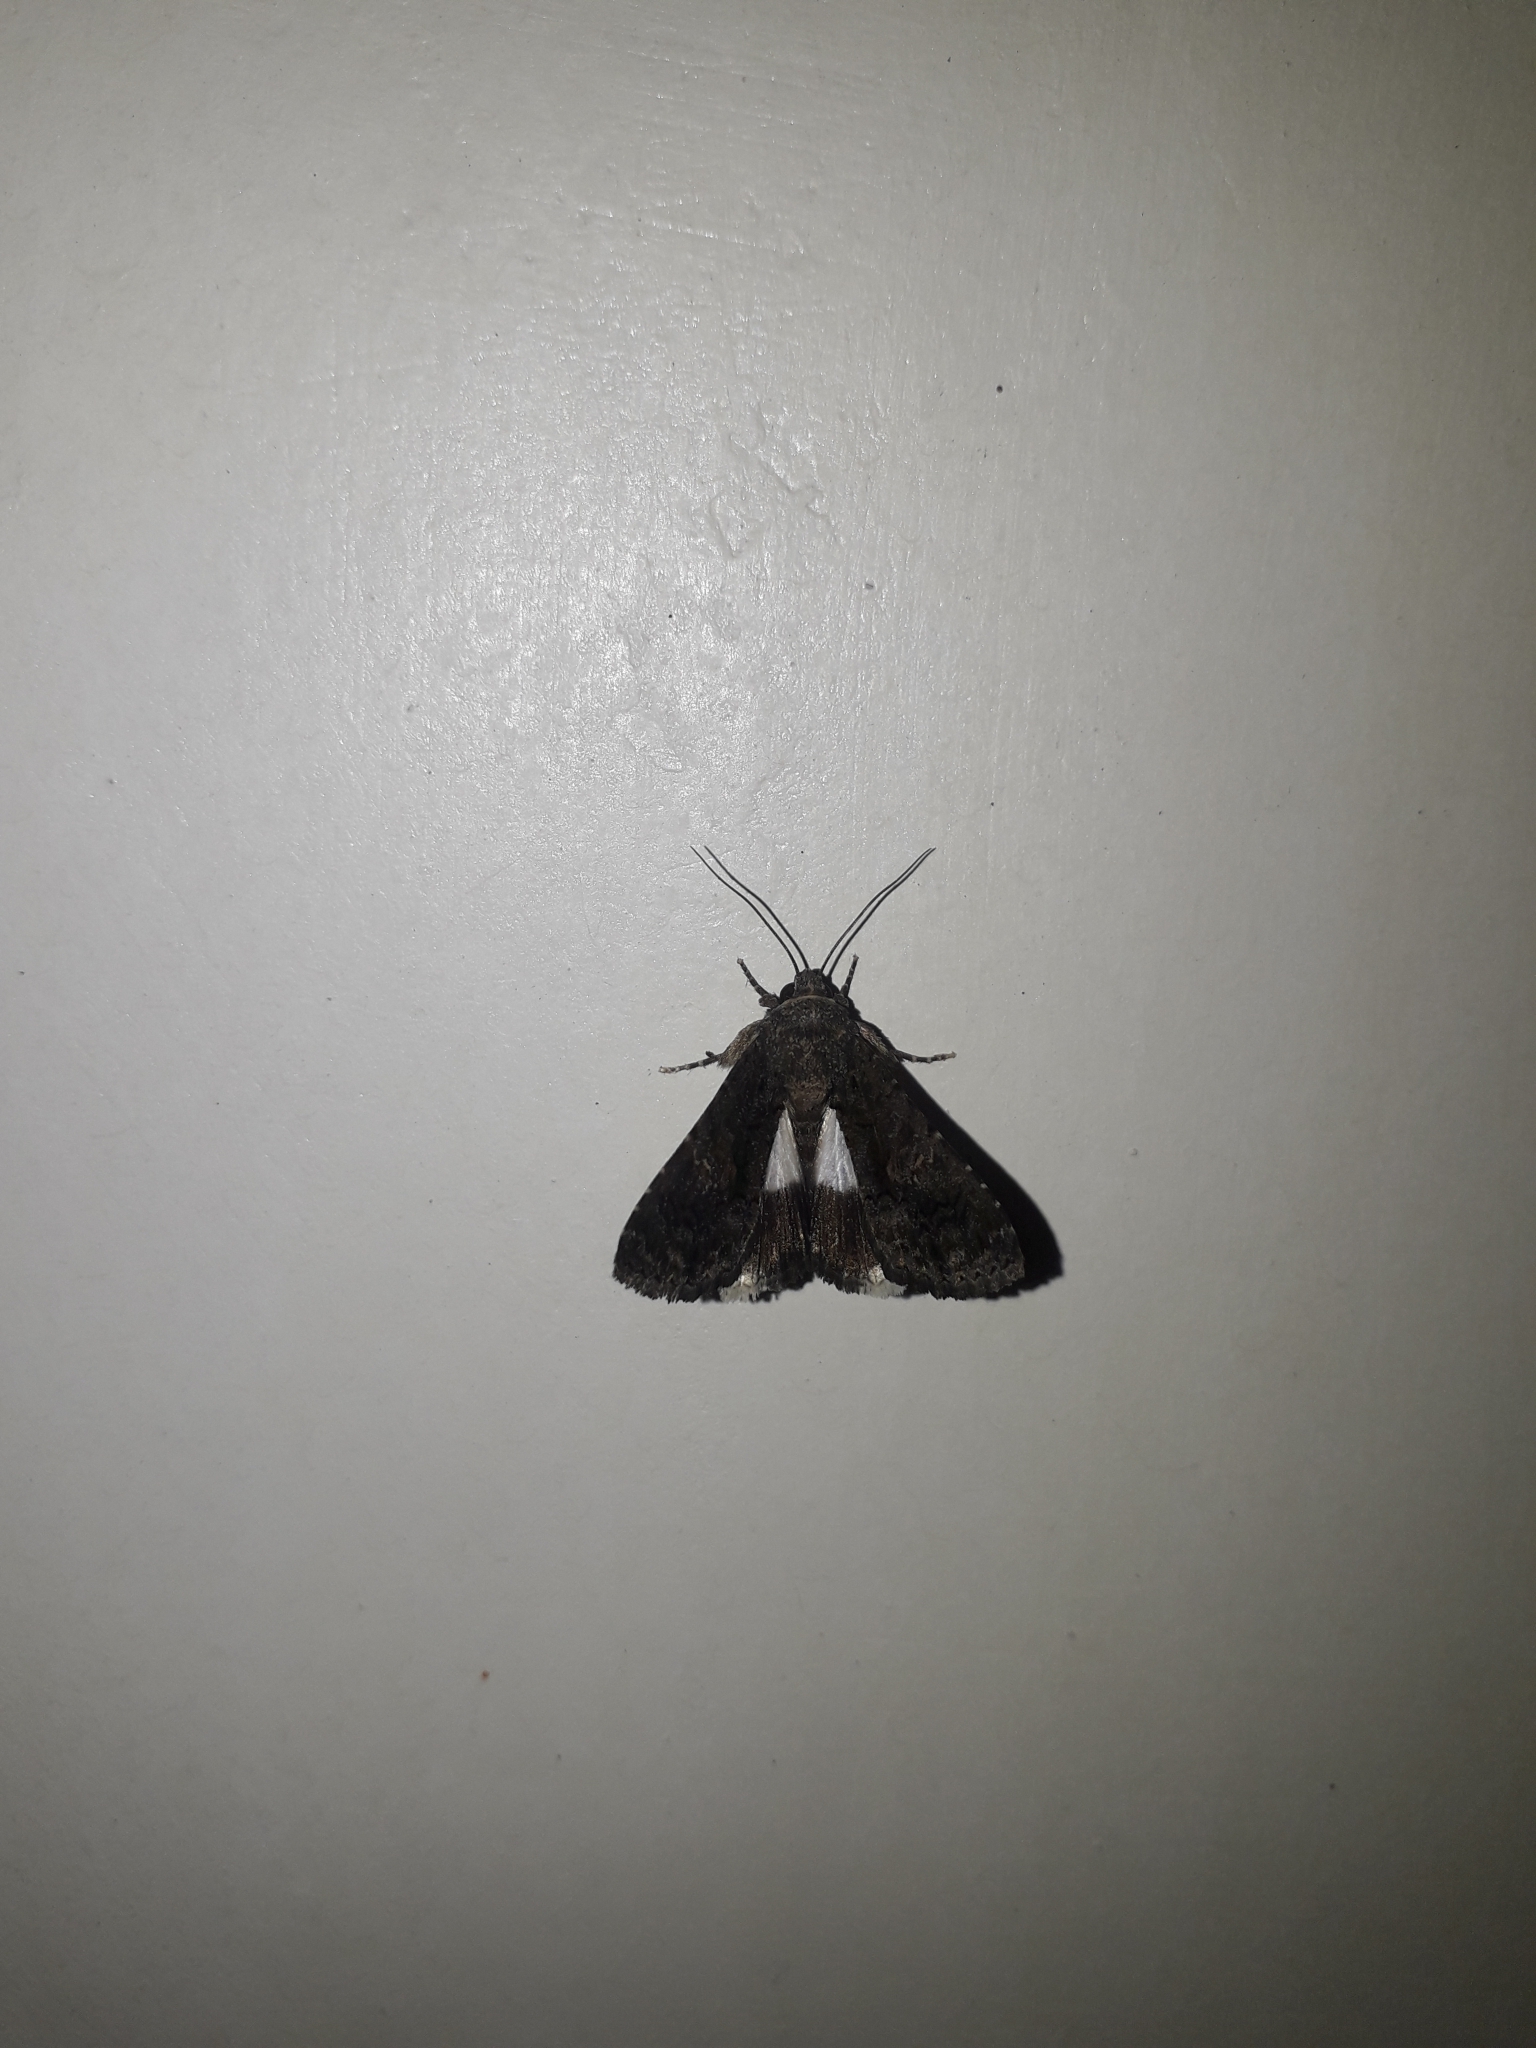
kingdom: Animalia
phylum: Arthropoda
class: Insecta
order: Lepidoptera
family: Noctuidae
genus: Aedia
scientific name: Aedia leucomelas
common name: Sorcerer
